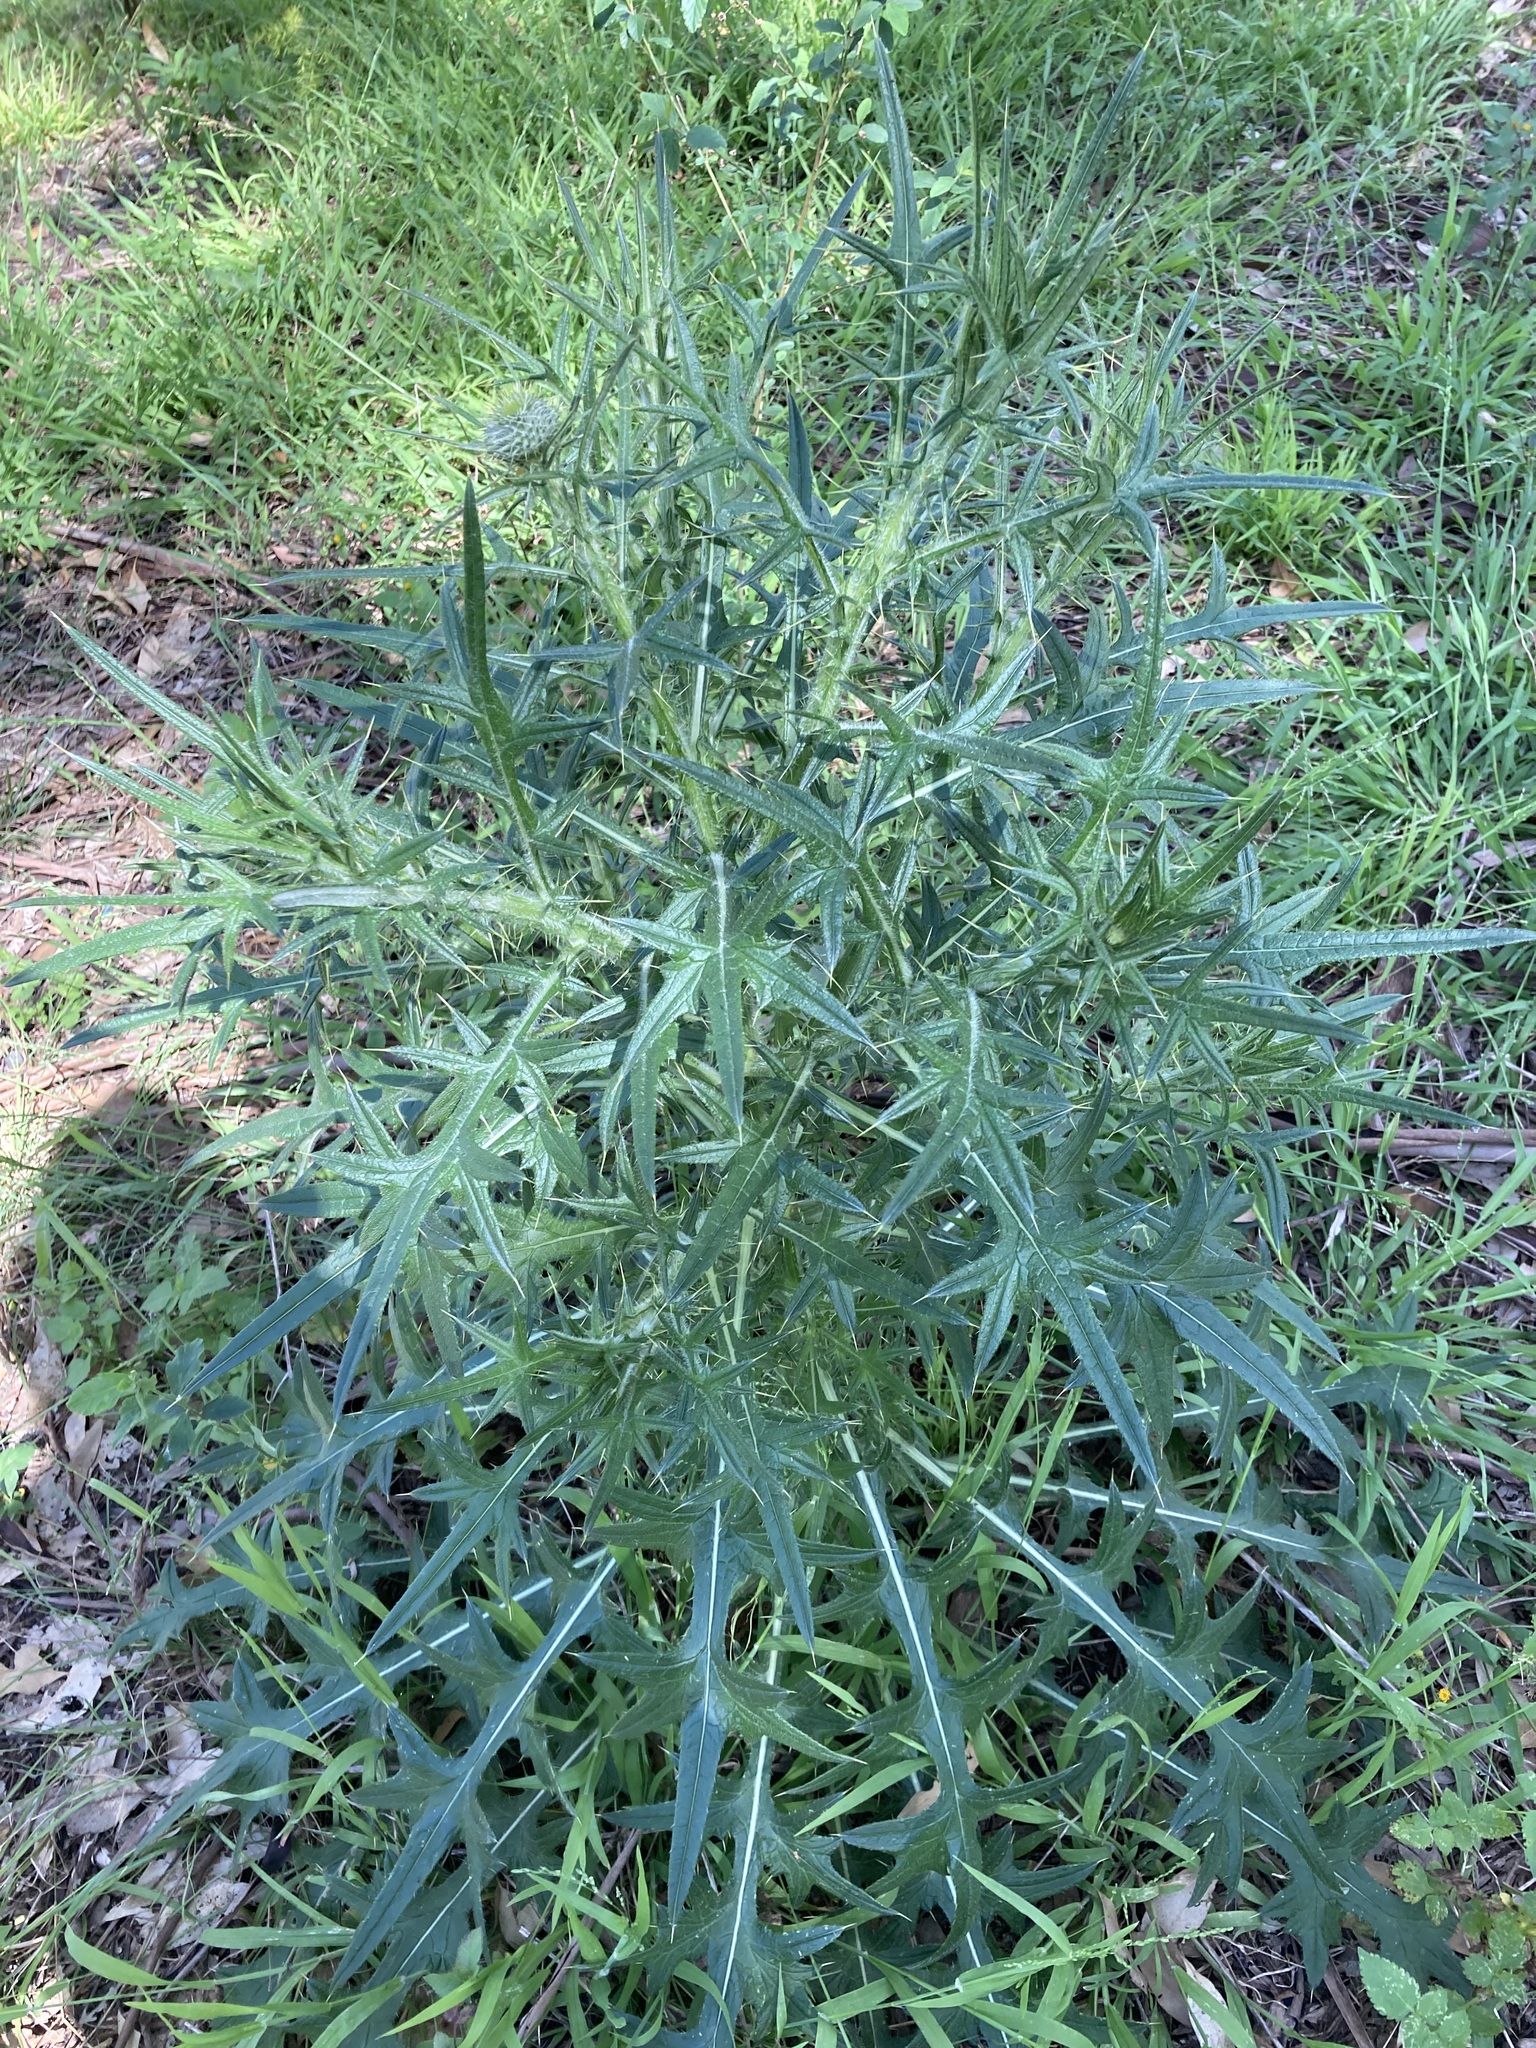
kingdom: Plantae
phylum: Tracheophyta
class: Magnoliopsida
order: Asterales
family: Asteraceae
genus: Cirsium
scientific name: Cirsium vulgare
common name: Bull thistle
